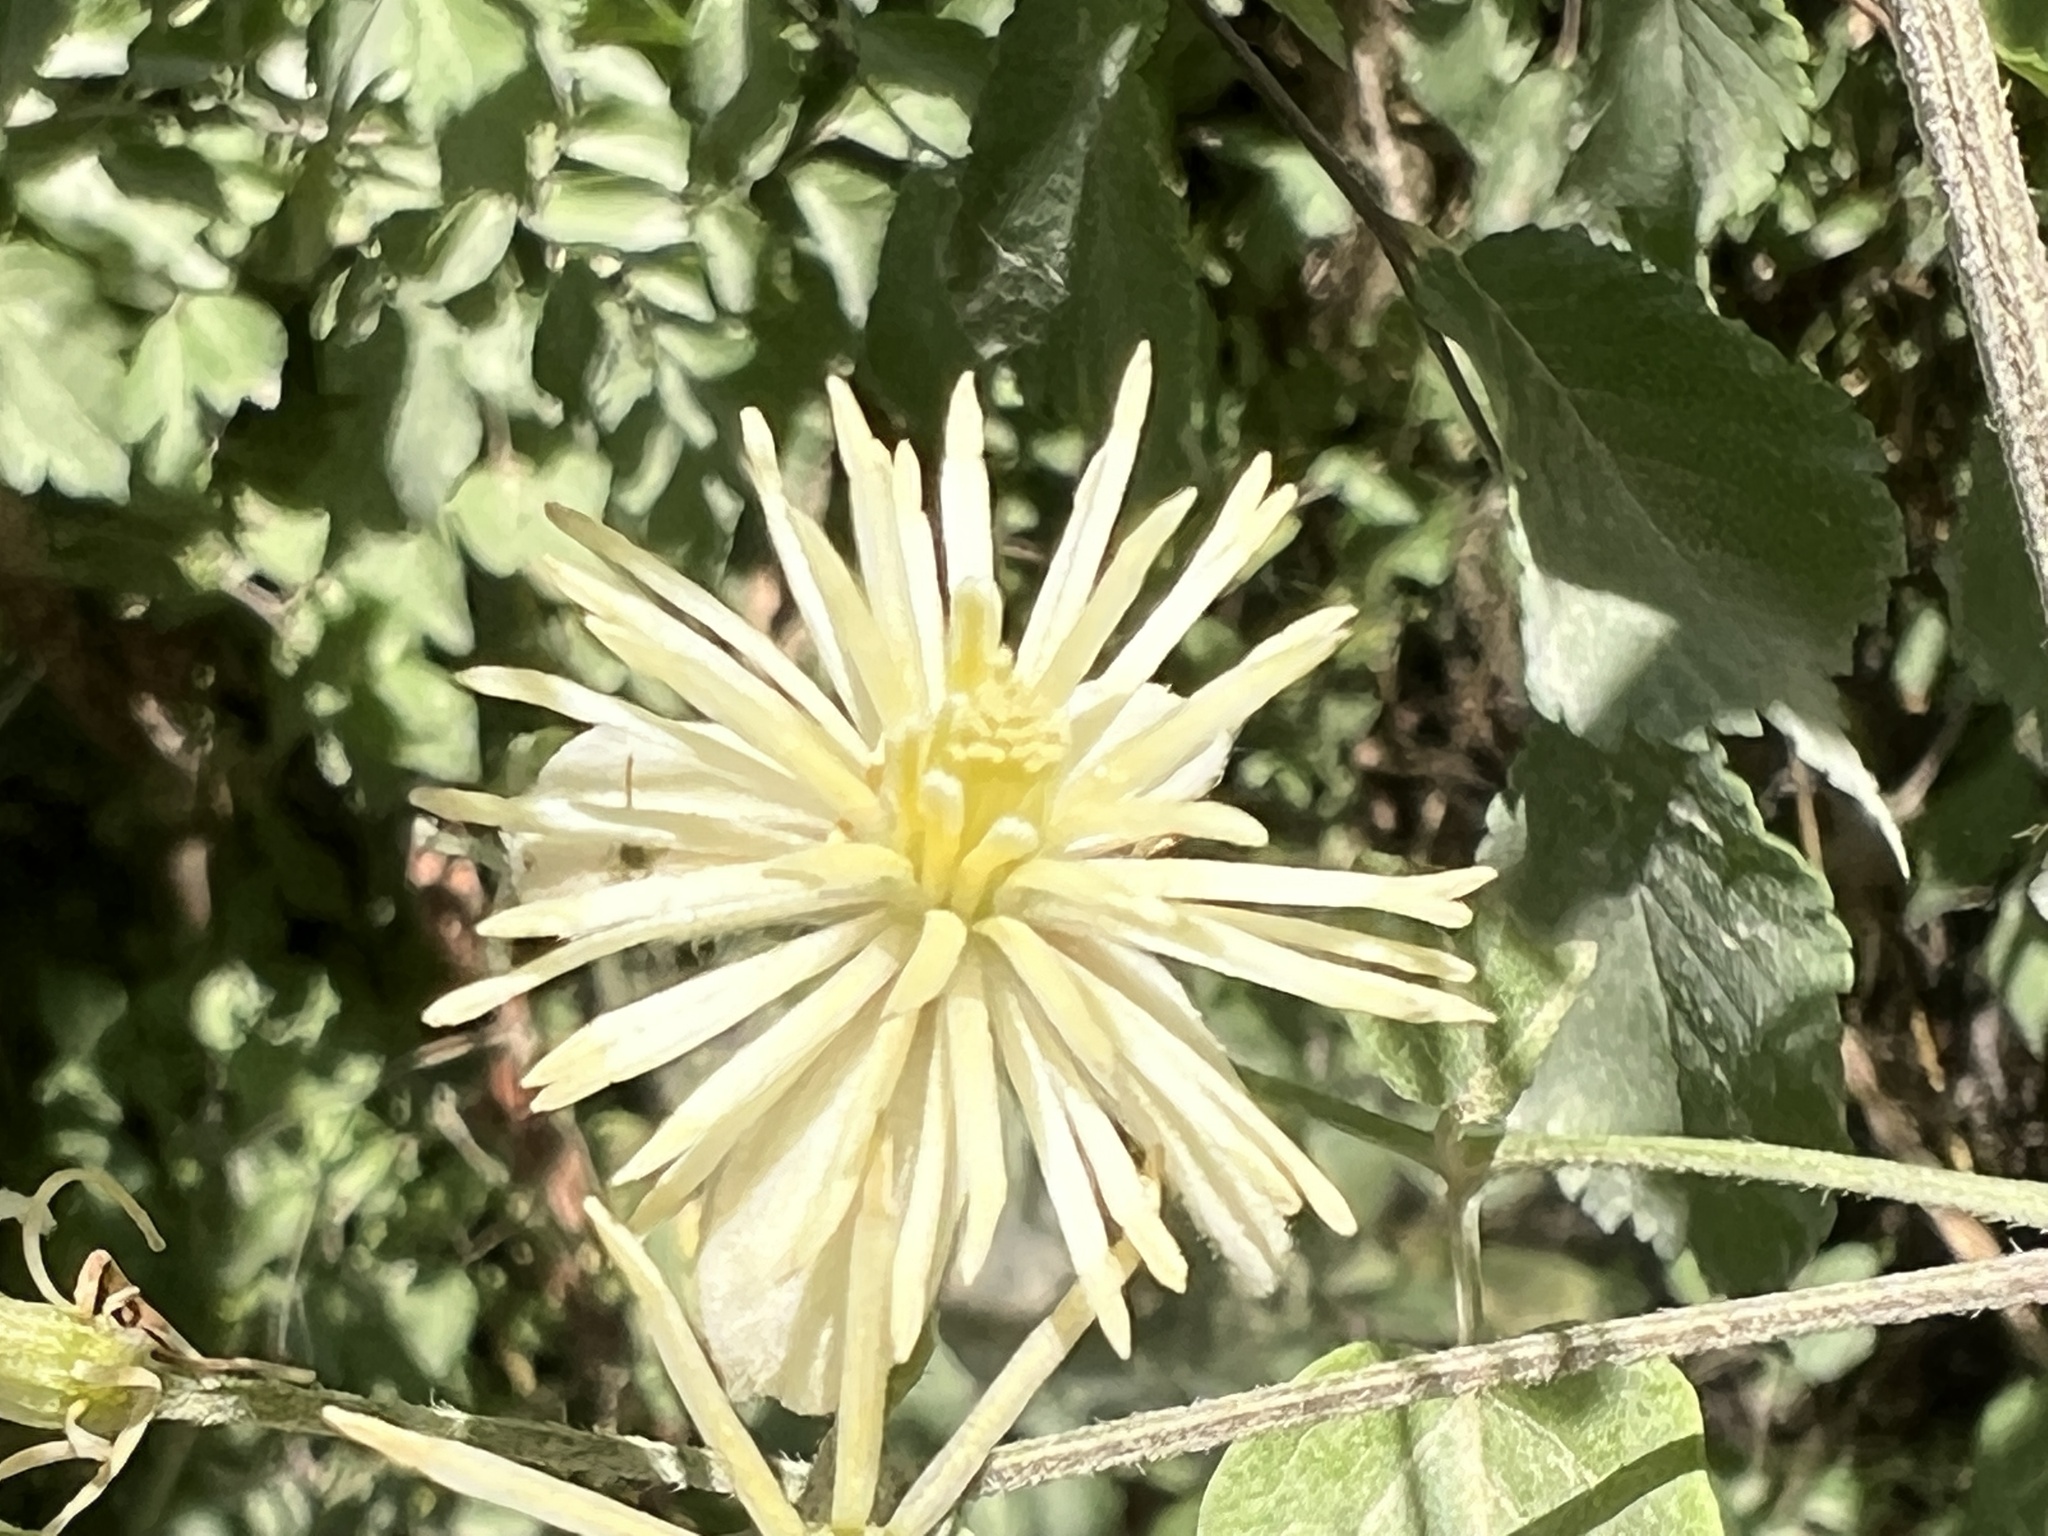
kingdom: Plantae
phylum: Tracheophyta
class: Magnoliopsida
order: Ranunculales
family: Ranunculaceae
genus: Clematis
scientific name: Clematis vitalba
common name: Evergreen clematis
